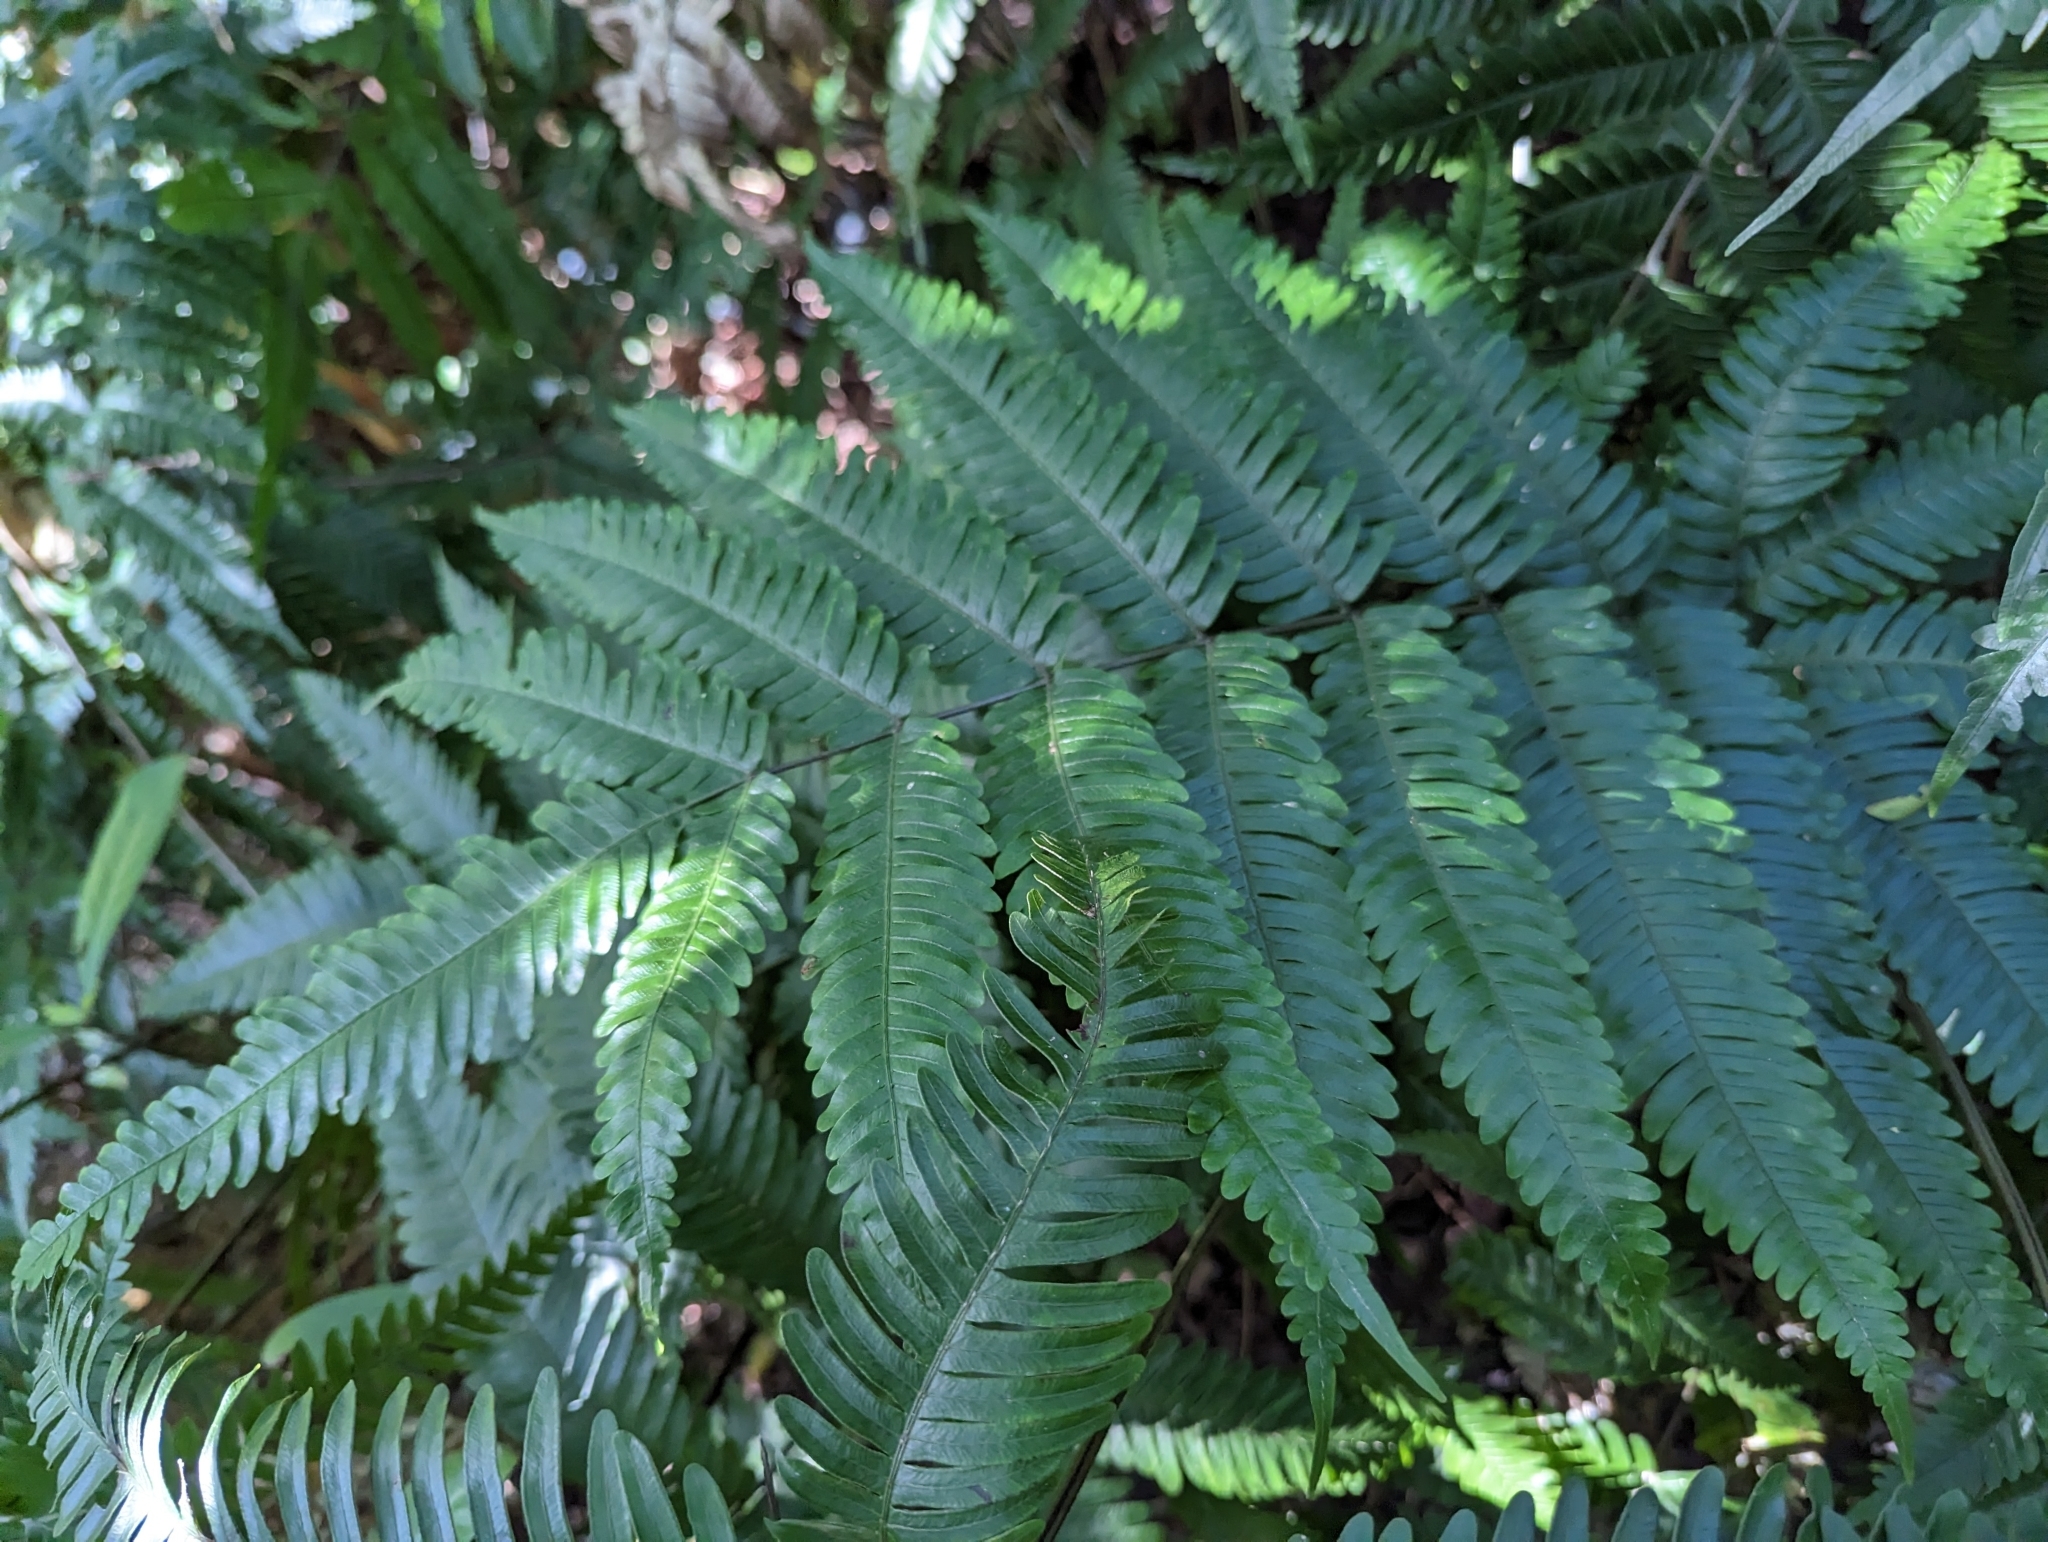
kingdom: Plantae
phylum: Tracheophyta
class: Polypodiopsida
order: Polypodiales
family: Pteridaceae
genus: Pteris
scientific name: Pteris fauriei
